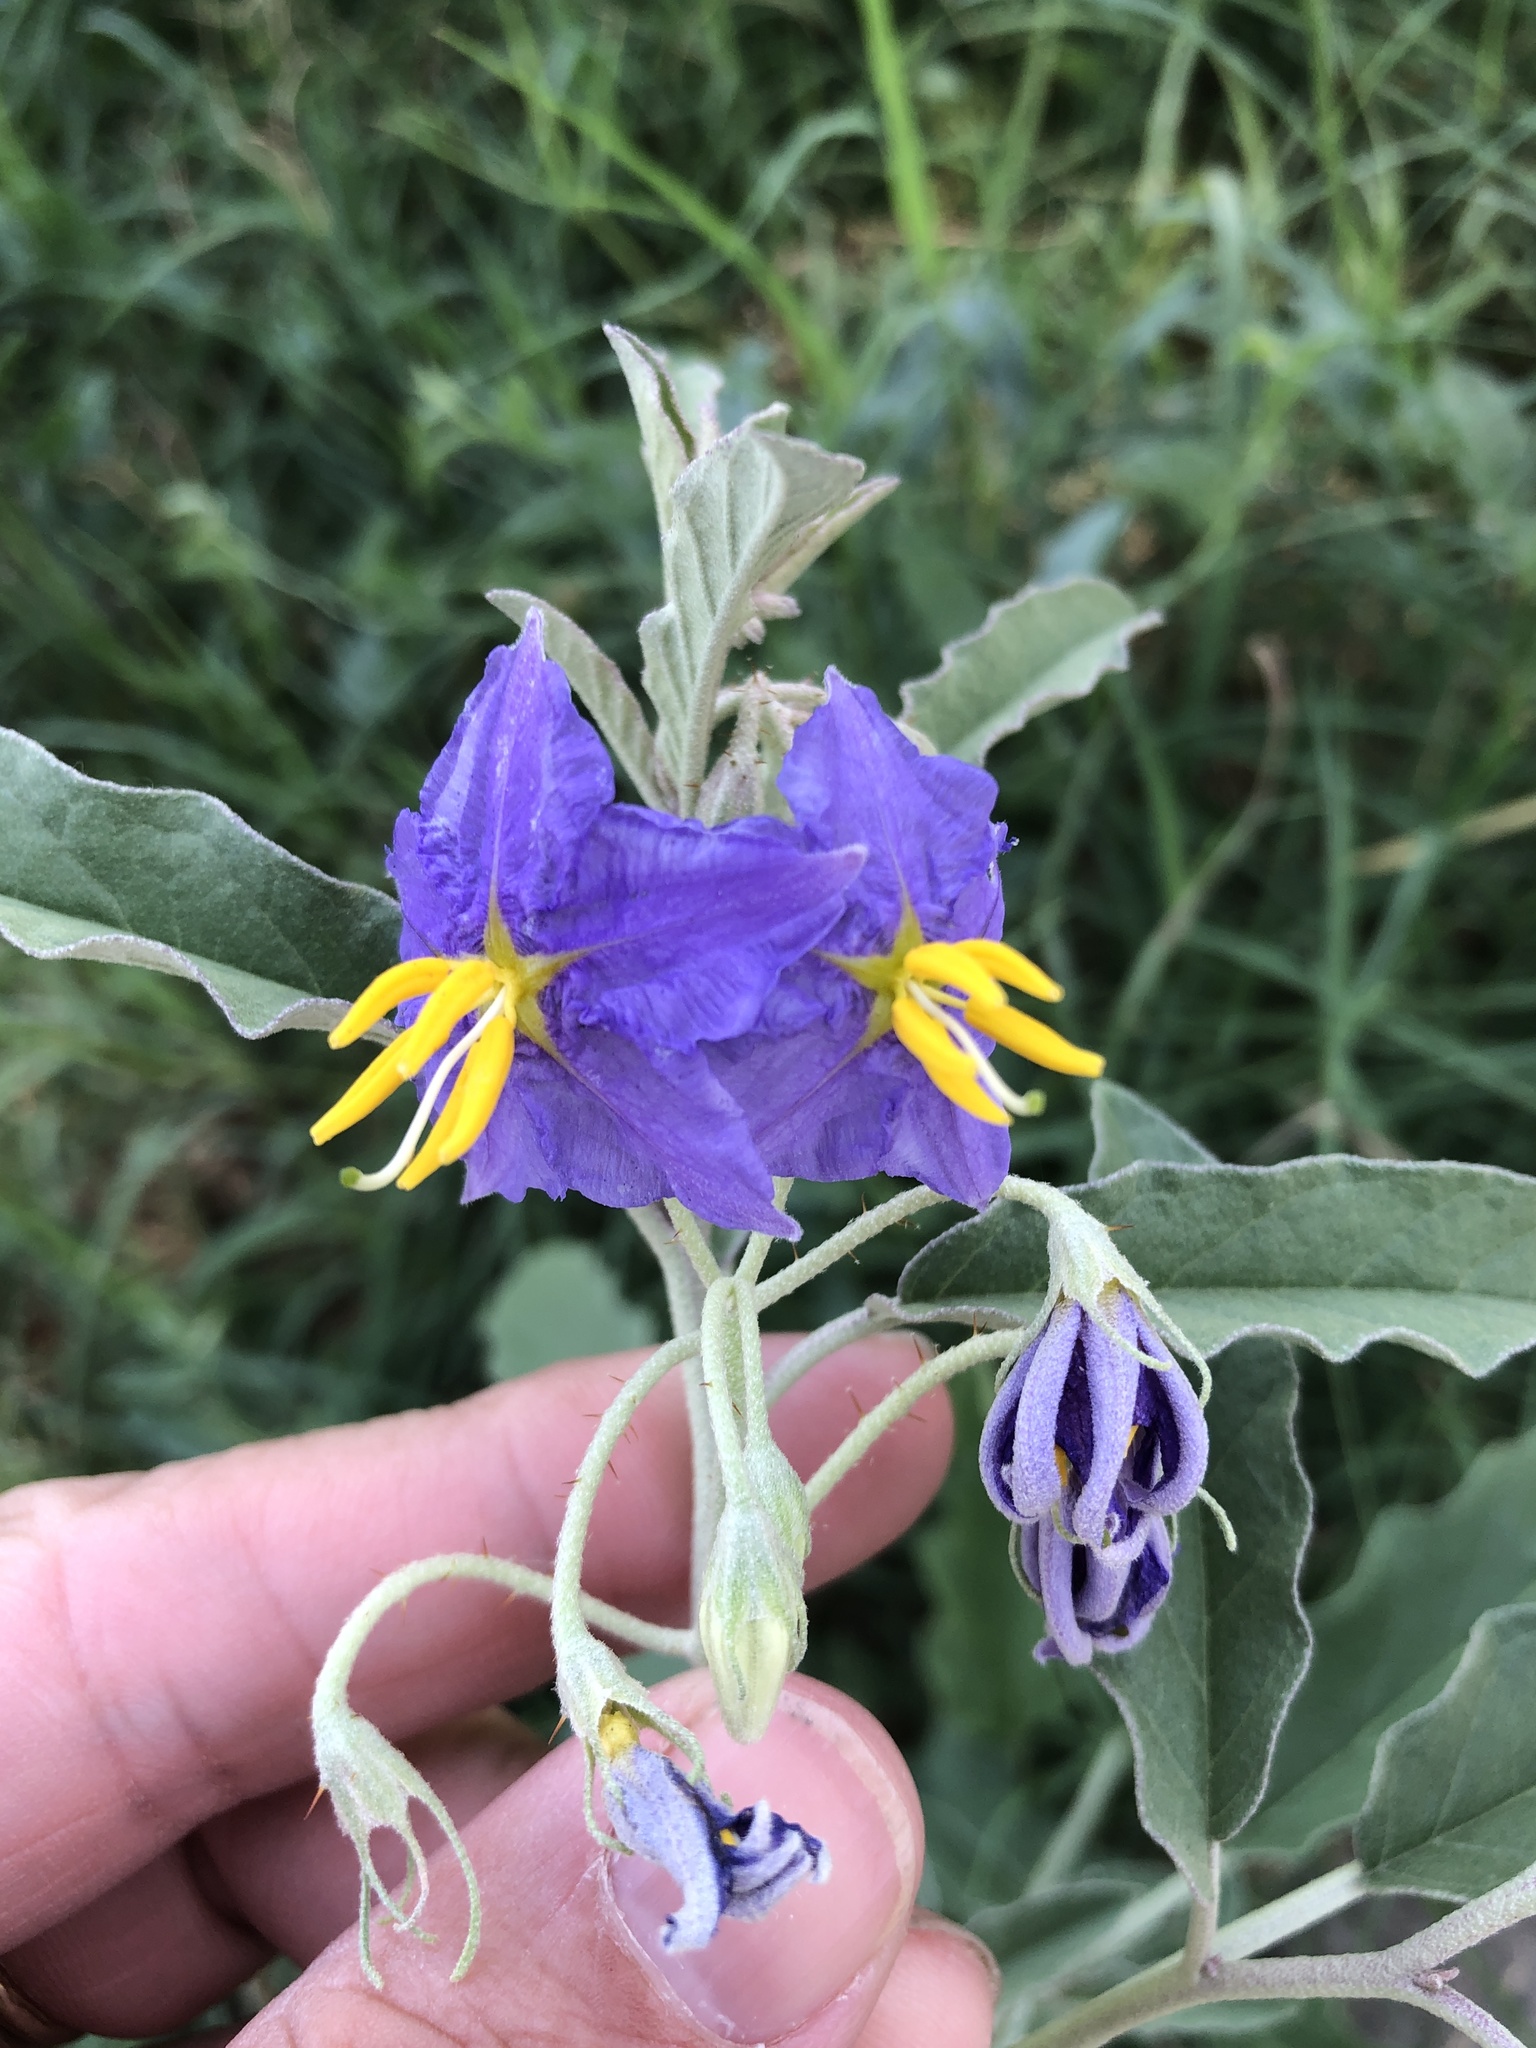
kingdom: Plantae
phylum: Tracheophyta
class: Magnoliopsida
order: Solanales
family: Solanaceae
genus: Solanum
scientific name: Solanum elaeagnifolium
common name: Silverleaf nightshade
